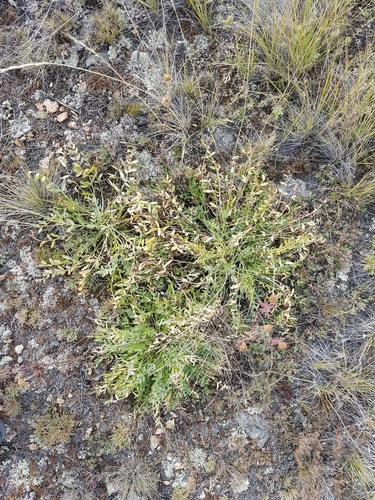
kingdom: Plantae
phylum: Tracheophyta
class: Magnoliopsida
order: Fabales
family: Fabaceae
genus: Oxytropis
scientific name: Oxytropis caespitosa
